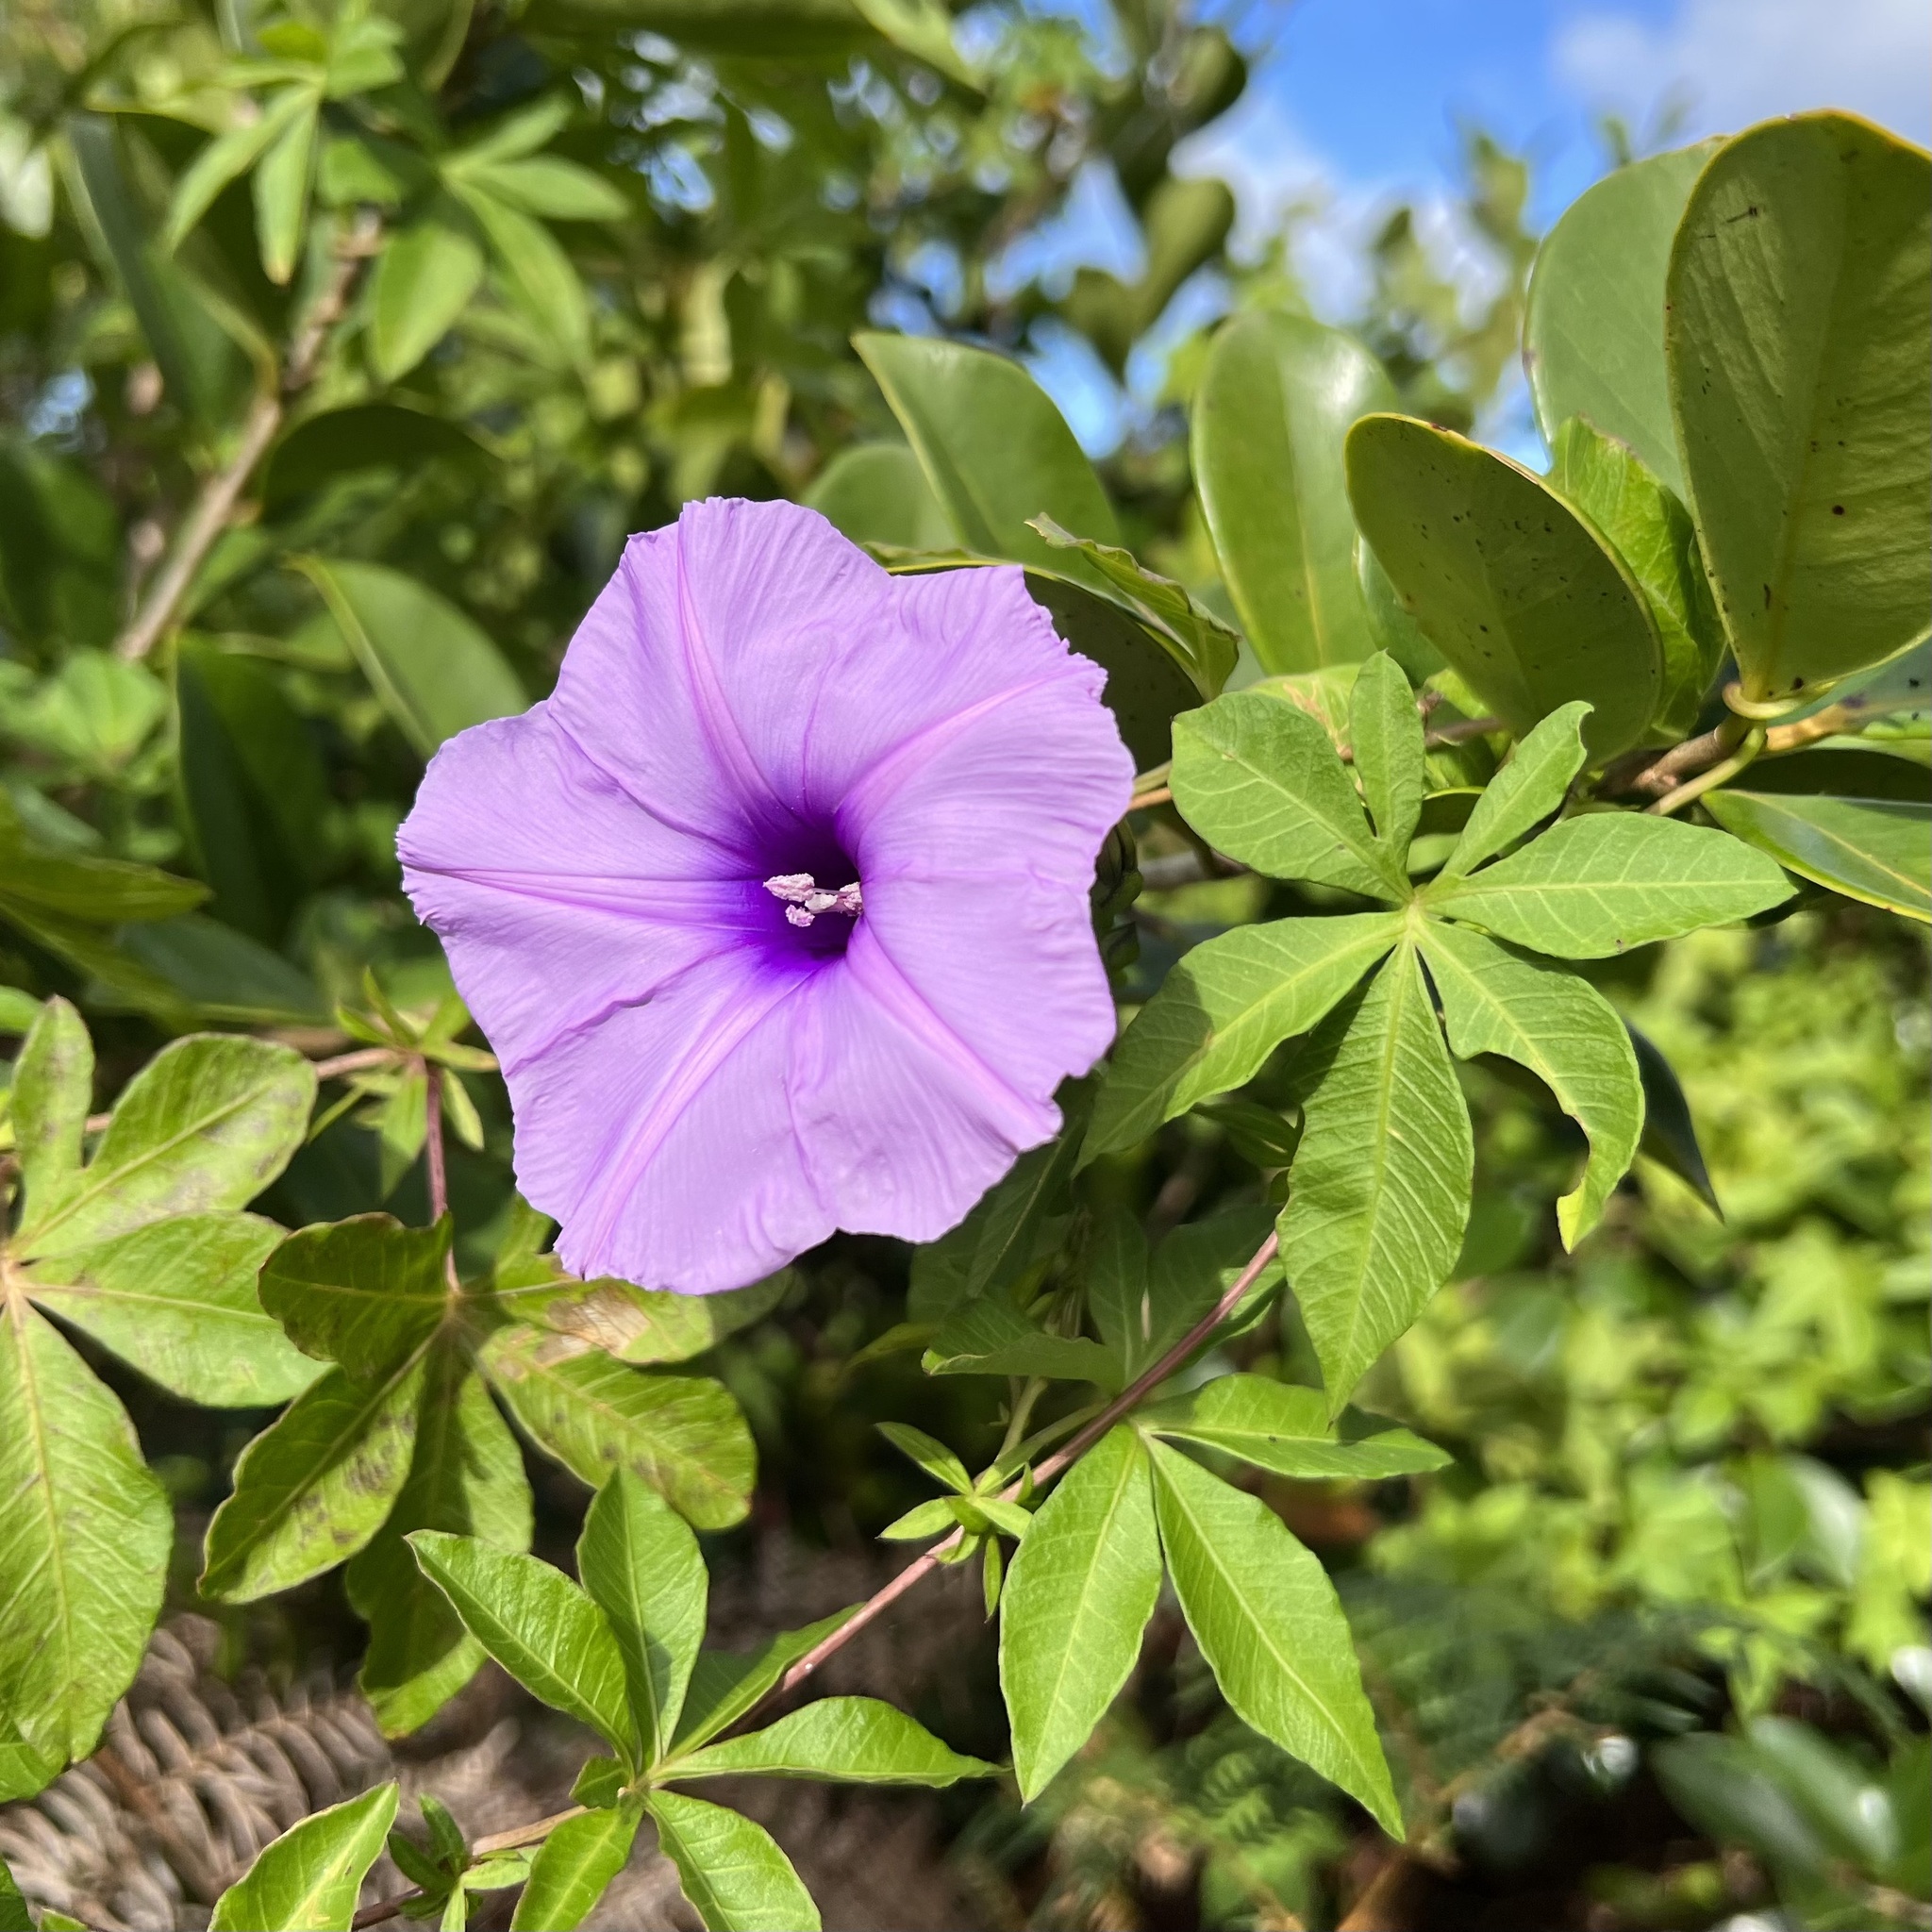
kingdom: Plantae
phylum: Tracheophyta
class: Magnoliopsida
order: Solanales
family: Convolvulaceae
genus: Ipomoea
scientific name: Ipomoea cairica
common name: Mile a minute vine
